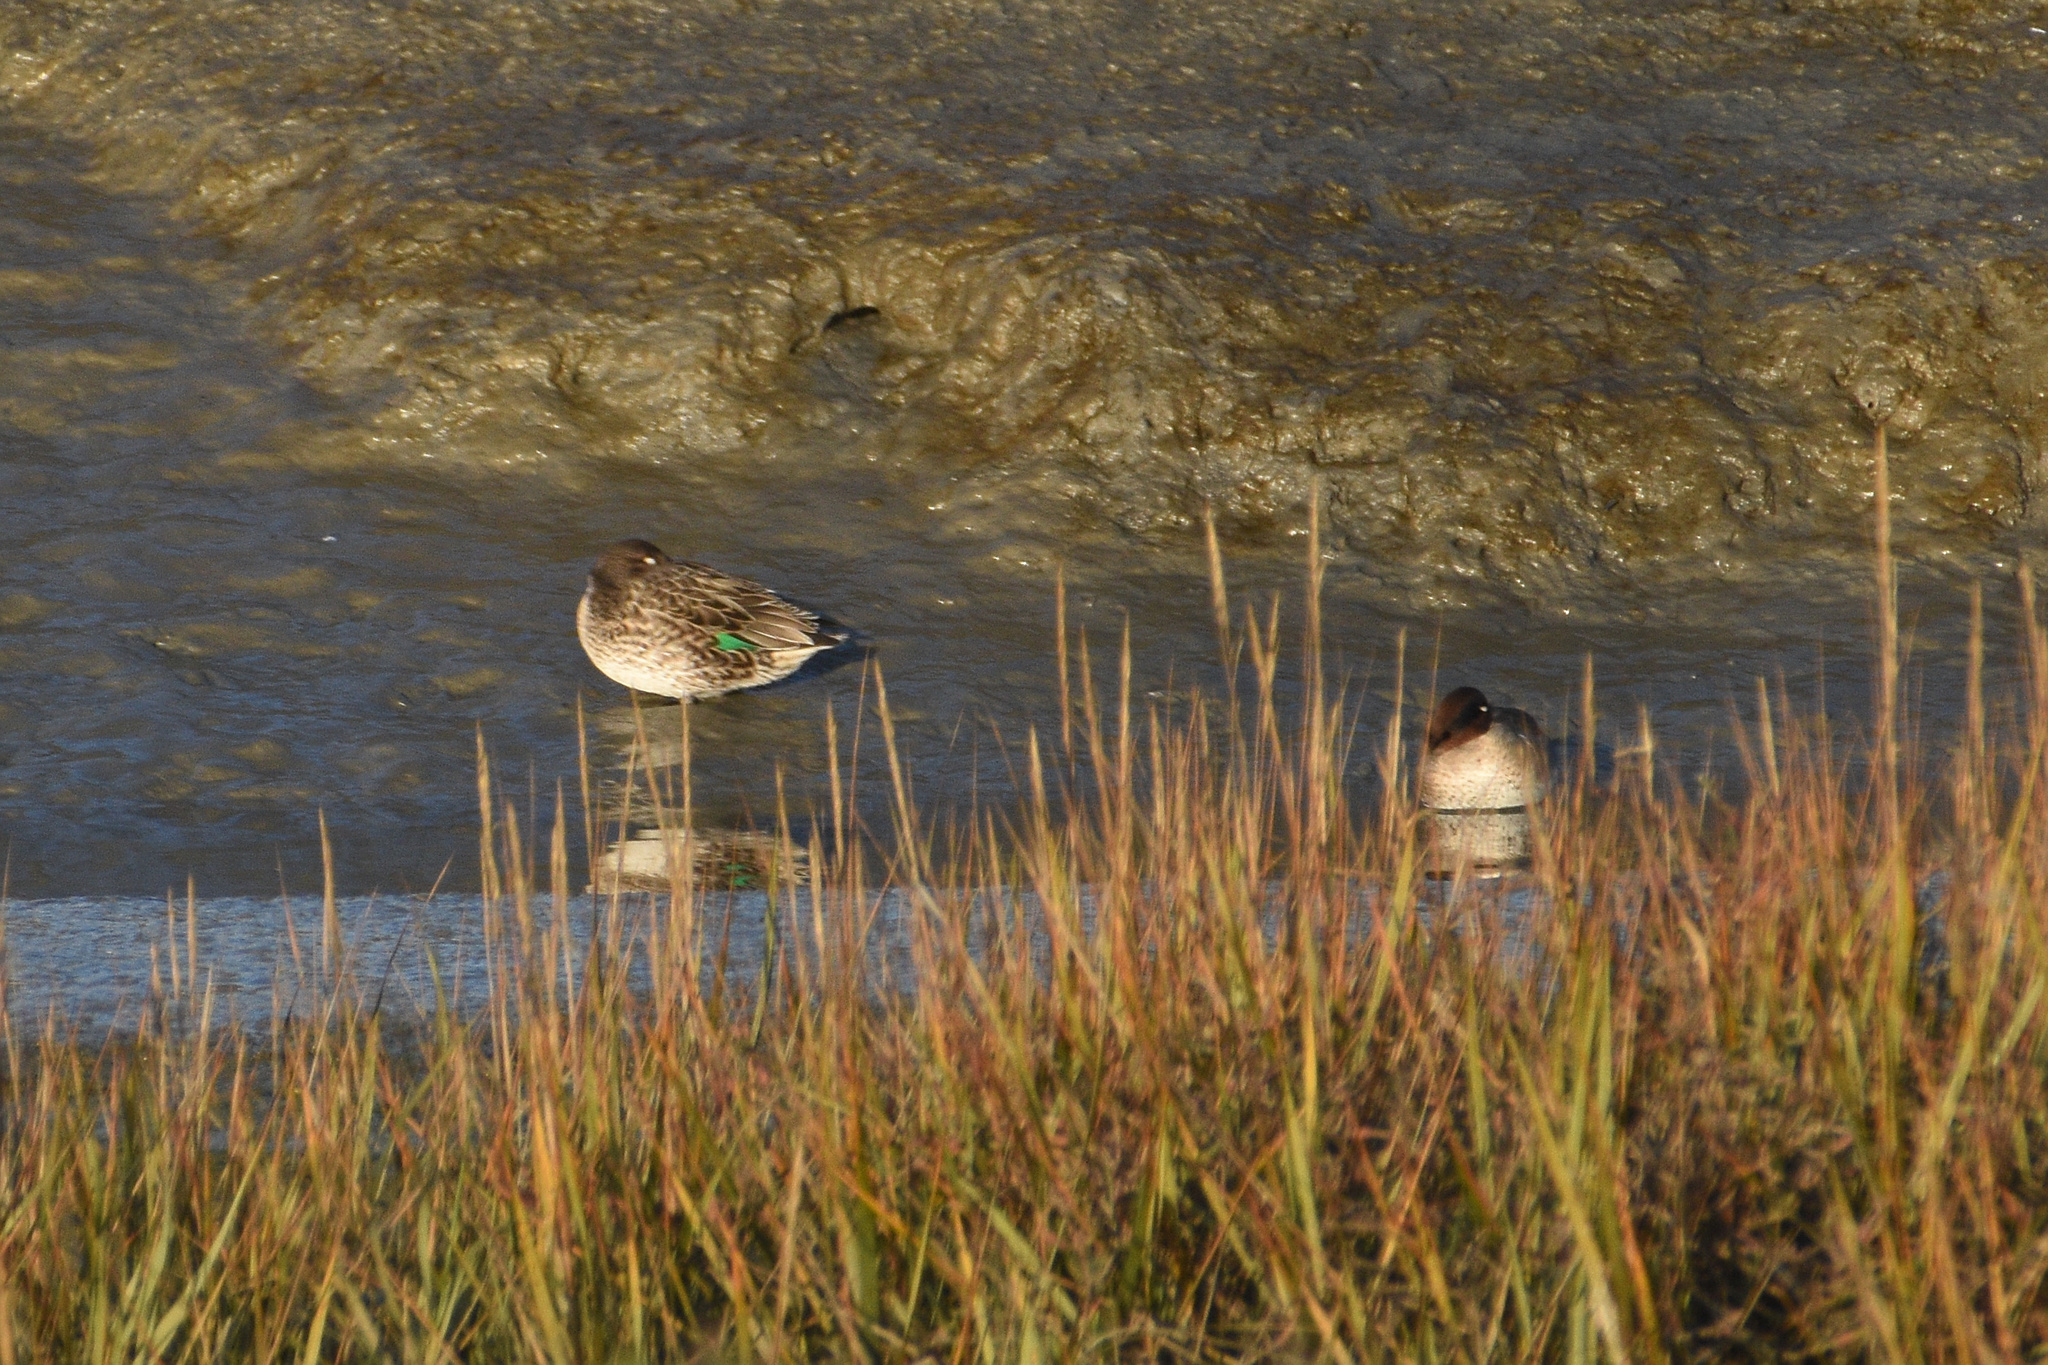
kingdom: Animalia
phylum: Chordata
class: Aves
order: Anseriformes
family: Anatidae
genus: Anas
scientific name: Anas crecca
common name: Eurasian teal
